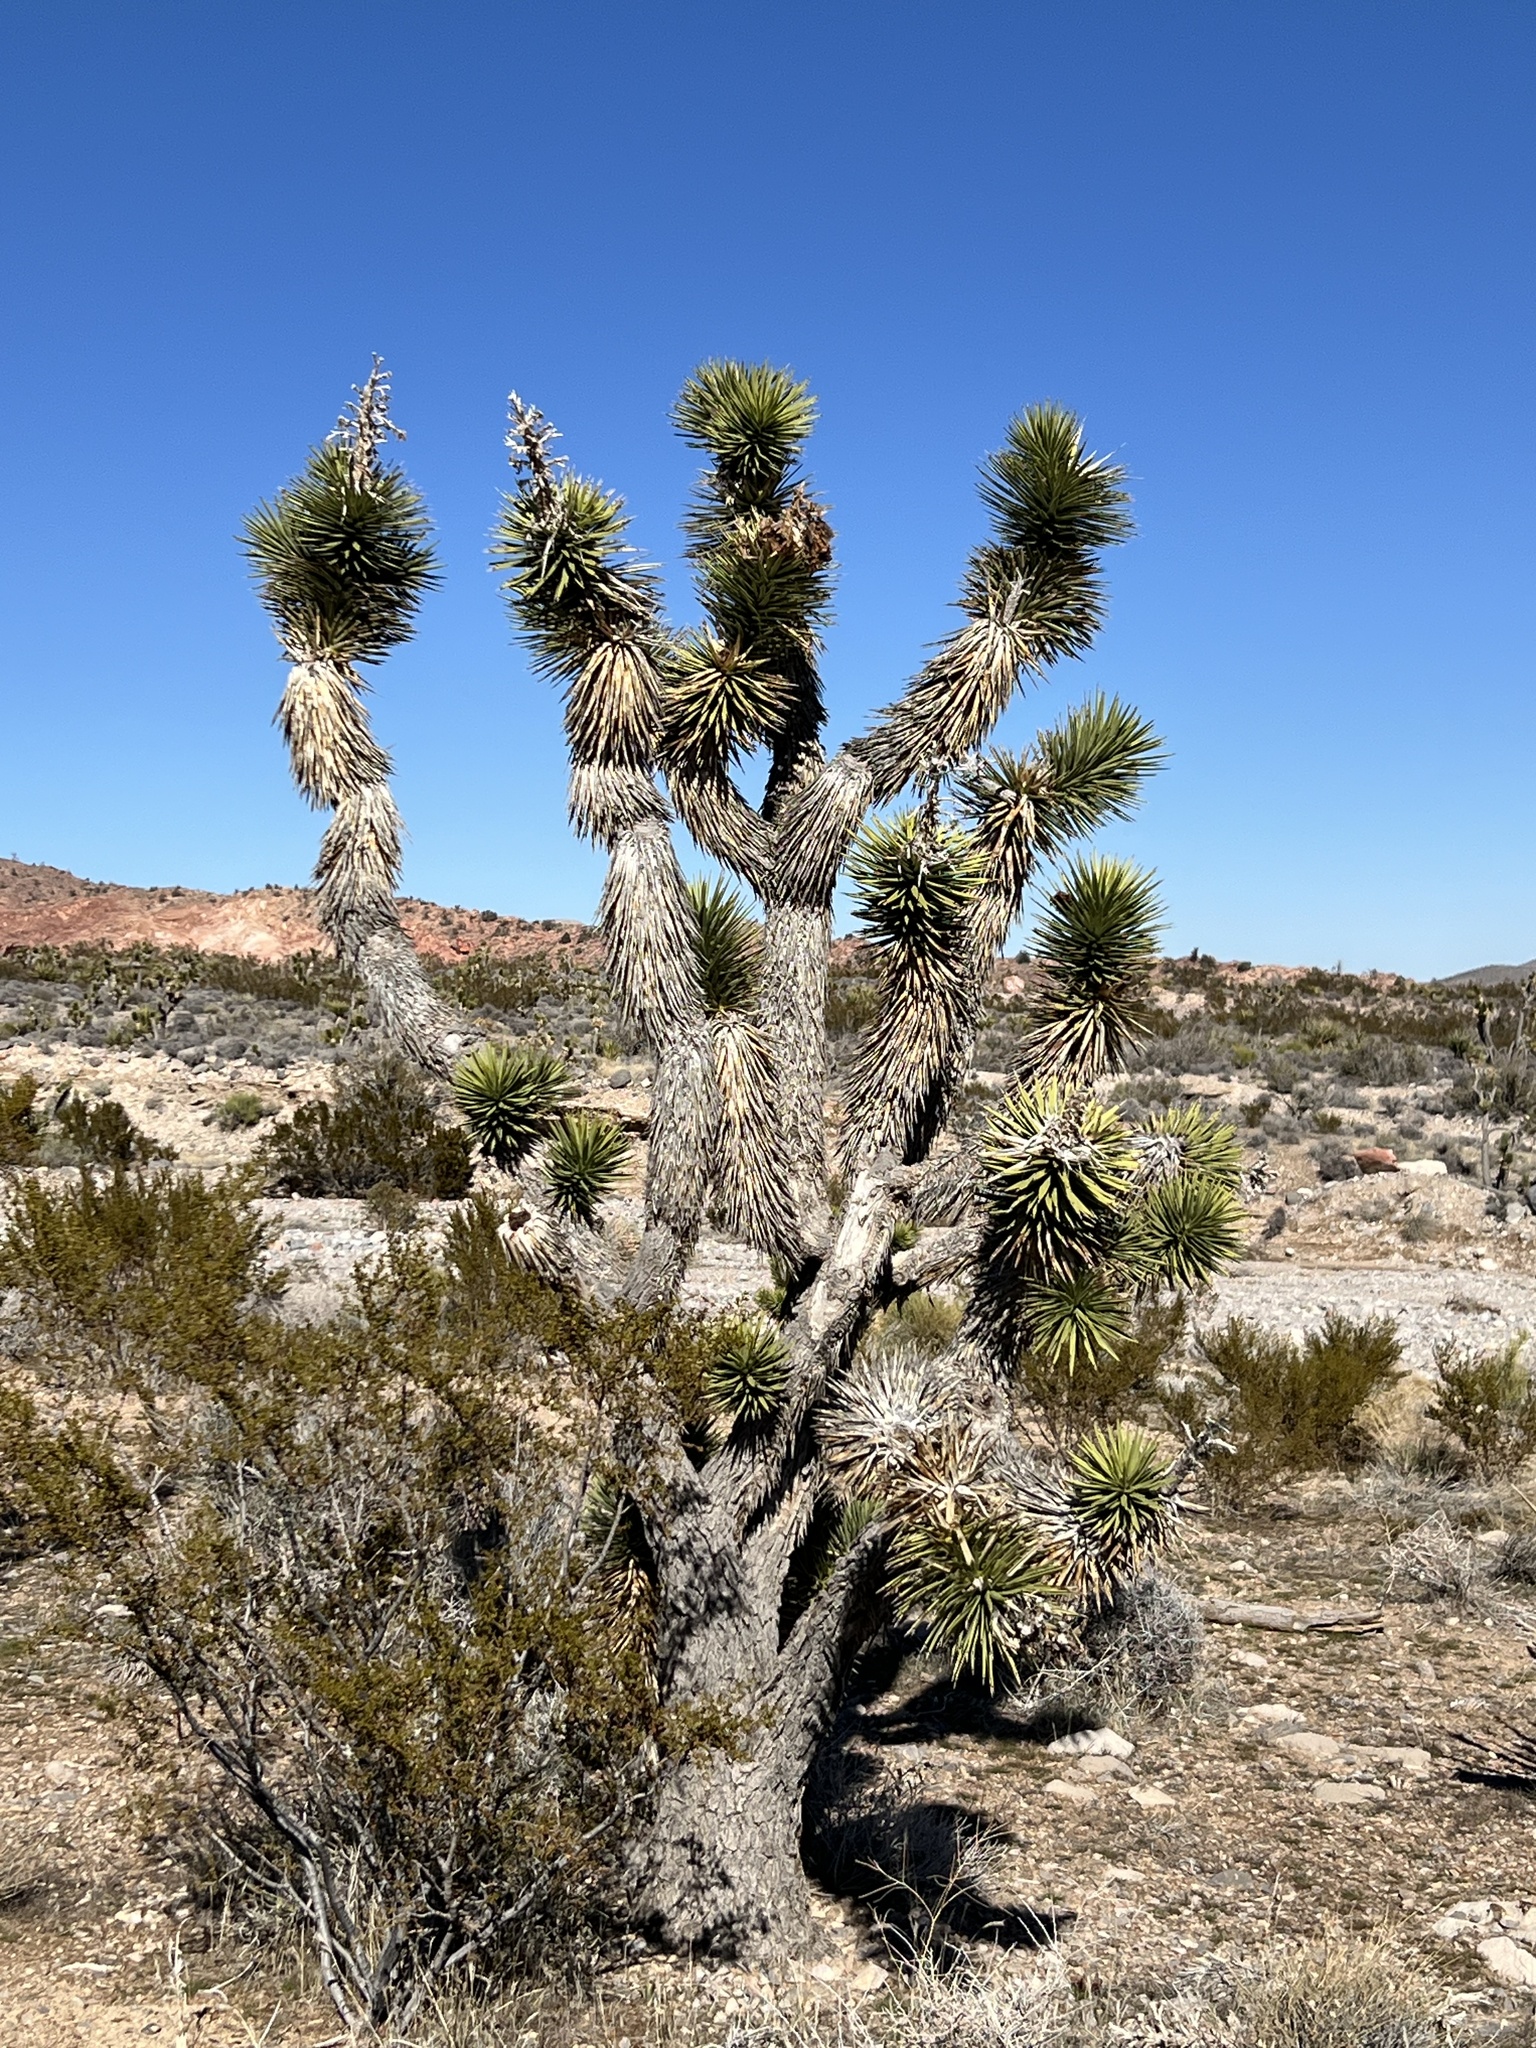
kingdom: Plantae
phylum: Tracheophyta
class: Liliopsida
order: Asparagales
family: Asparagaceae
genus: Yucca
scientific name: Yucca brevifolia
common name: Joshua tree
